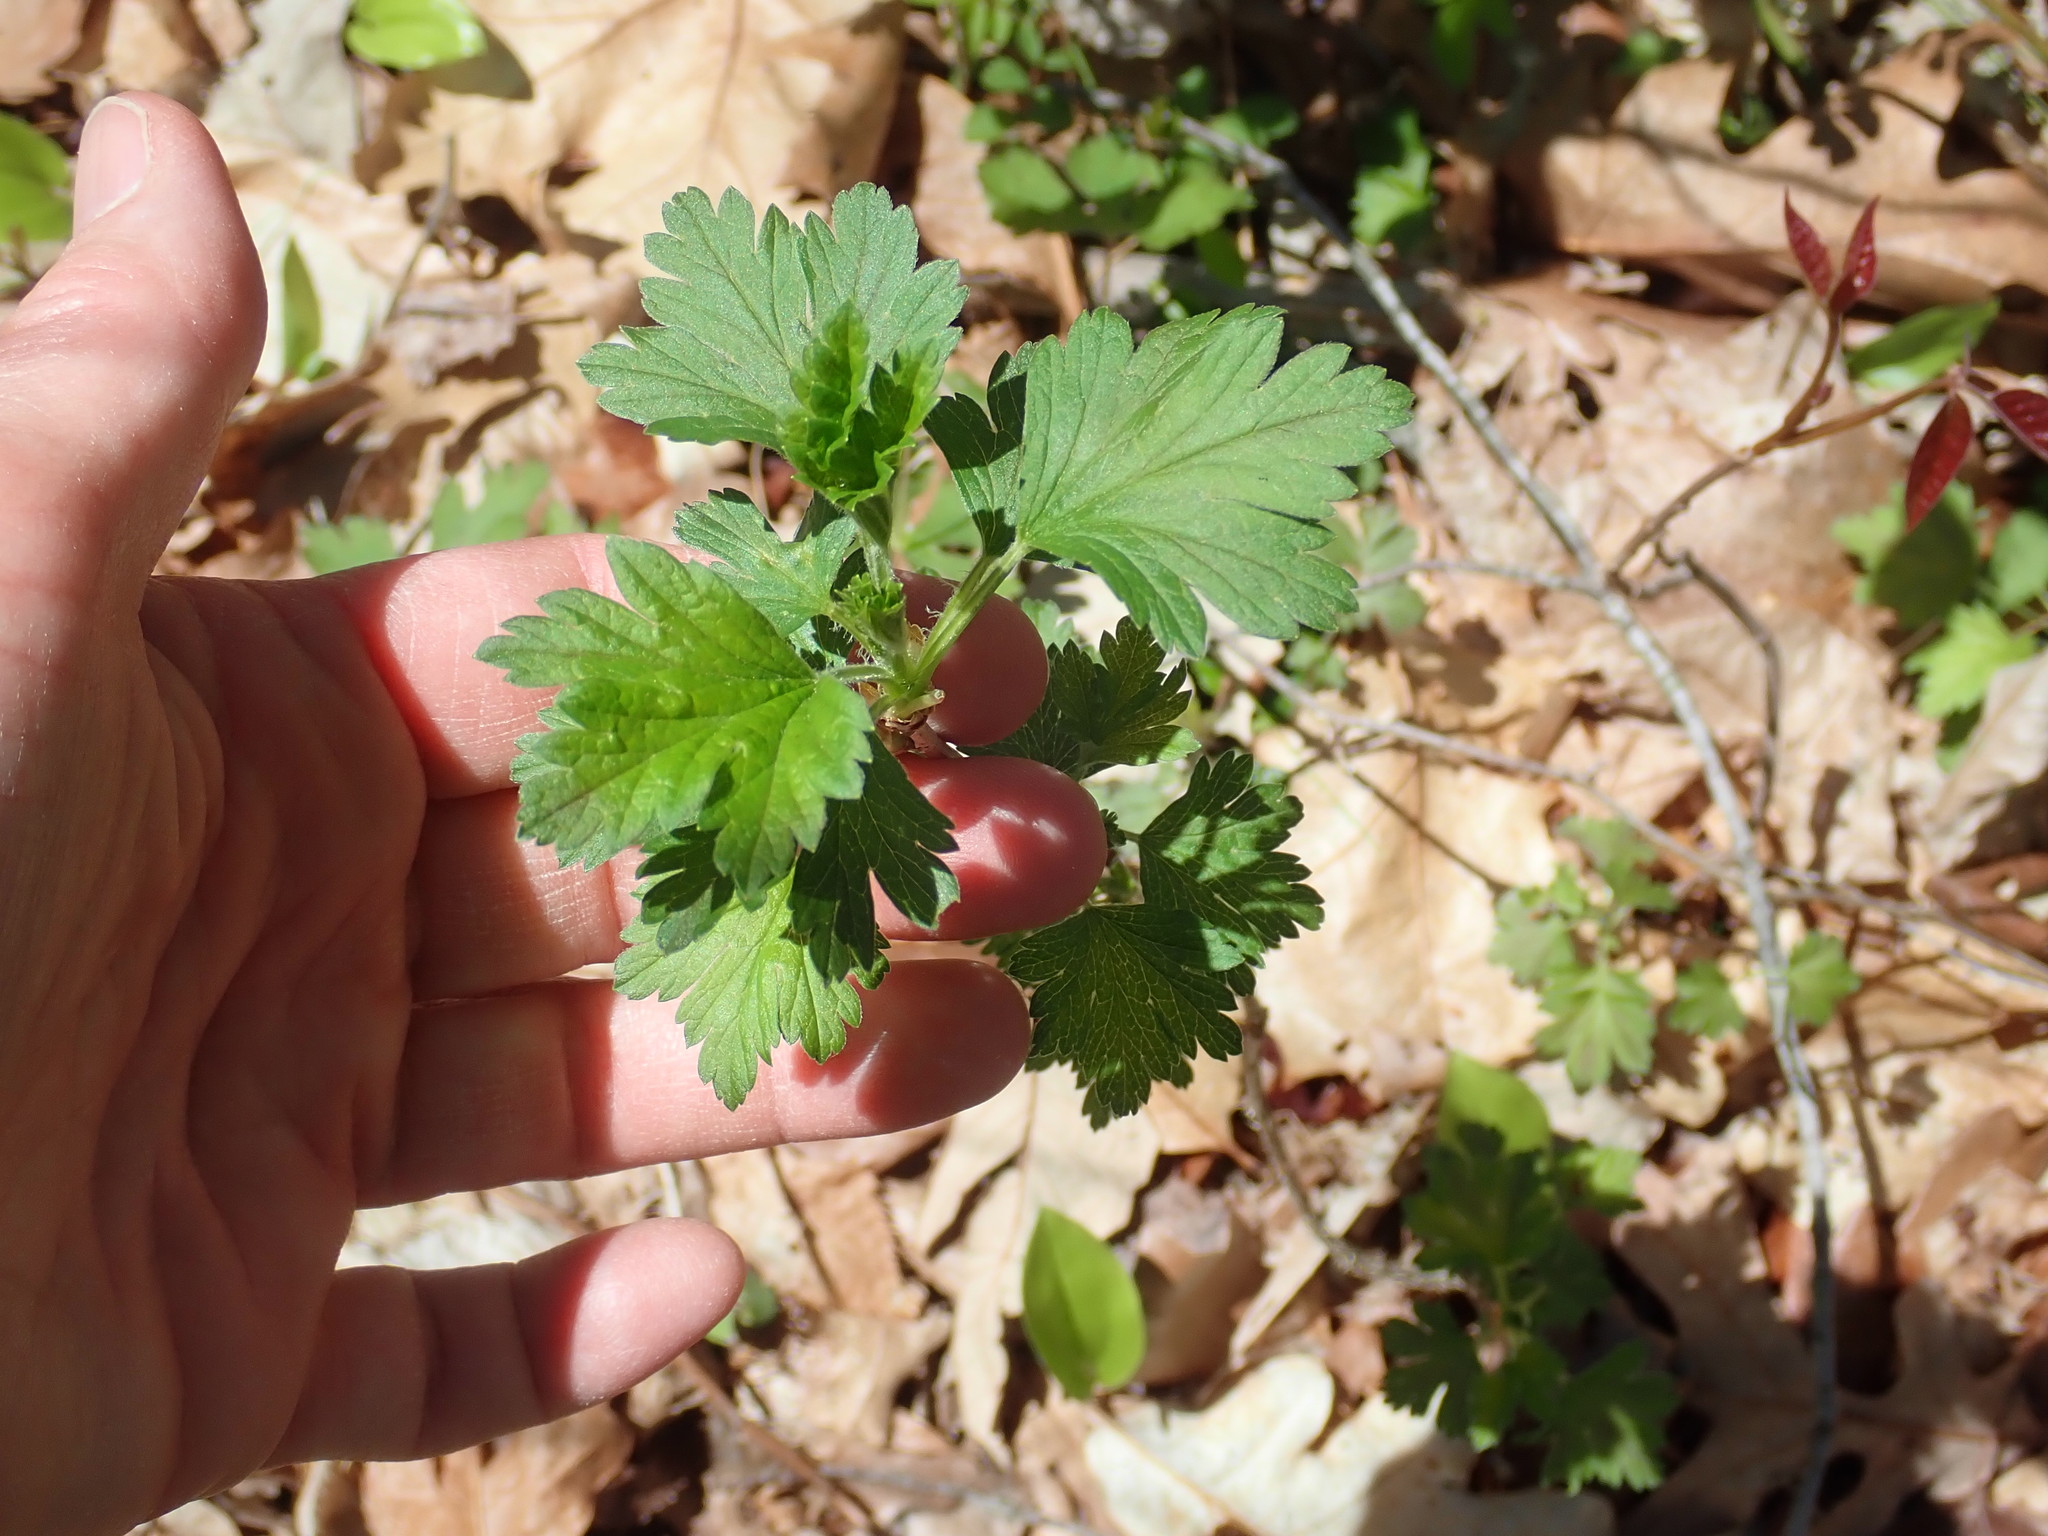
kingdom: Plantae
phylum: Tracheophyta
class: Magnoliopsida
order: Saxifragales
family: Grossulariaceae
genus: Ribes
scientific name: Ribes
